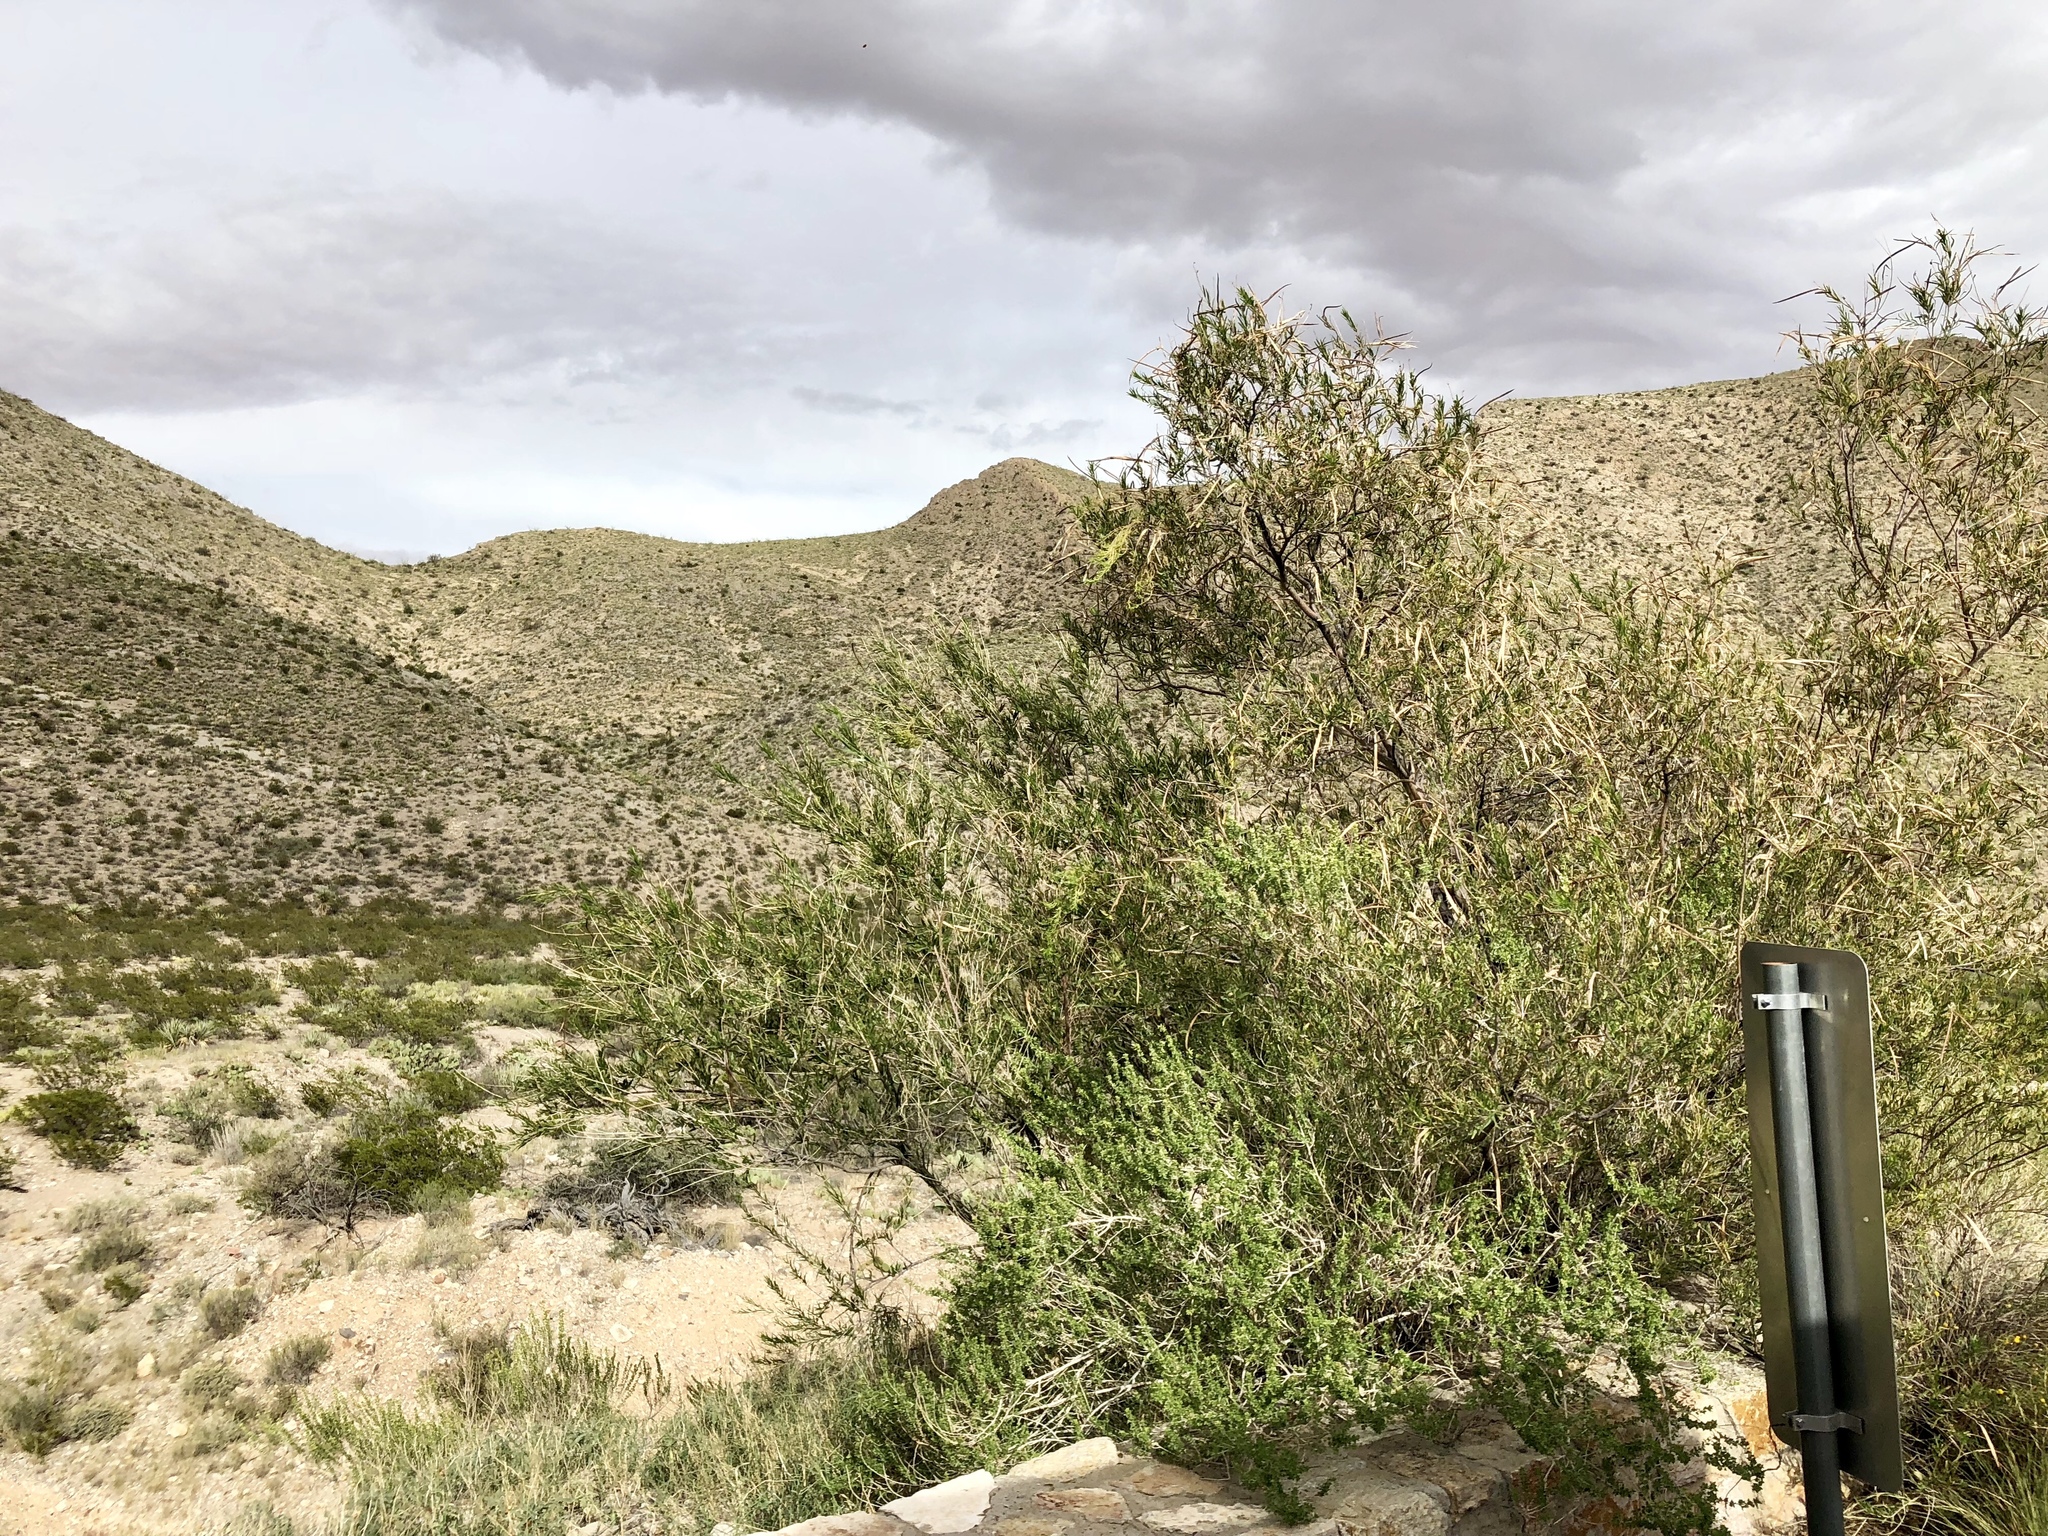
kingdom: Plantae
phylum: Tracheophyta
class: Magnoliopsida
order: Lamiales
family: Bignoniaceae
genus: Chilopsis
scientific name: Chilopsis linearis
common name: Desert-willow
